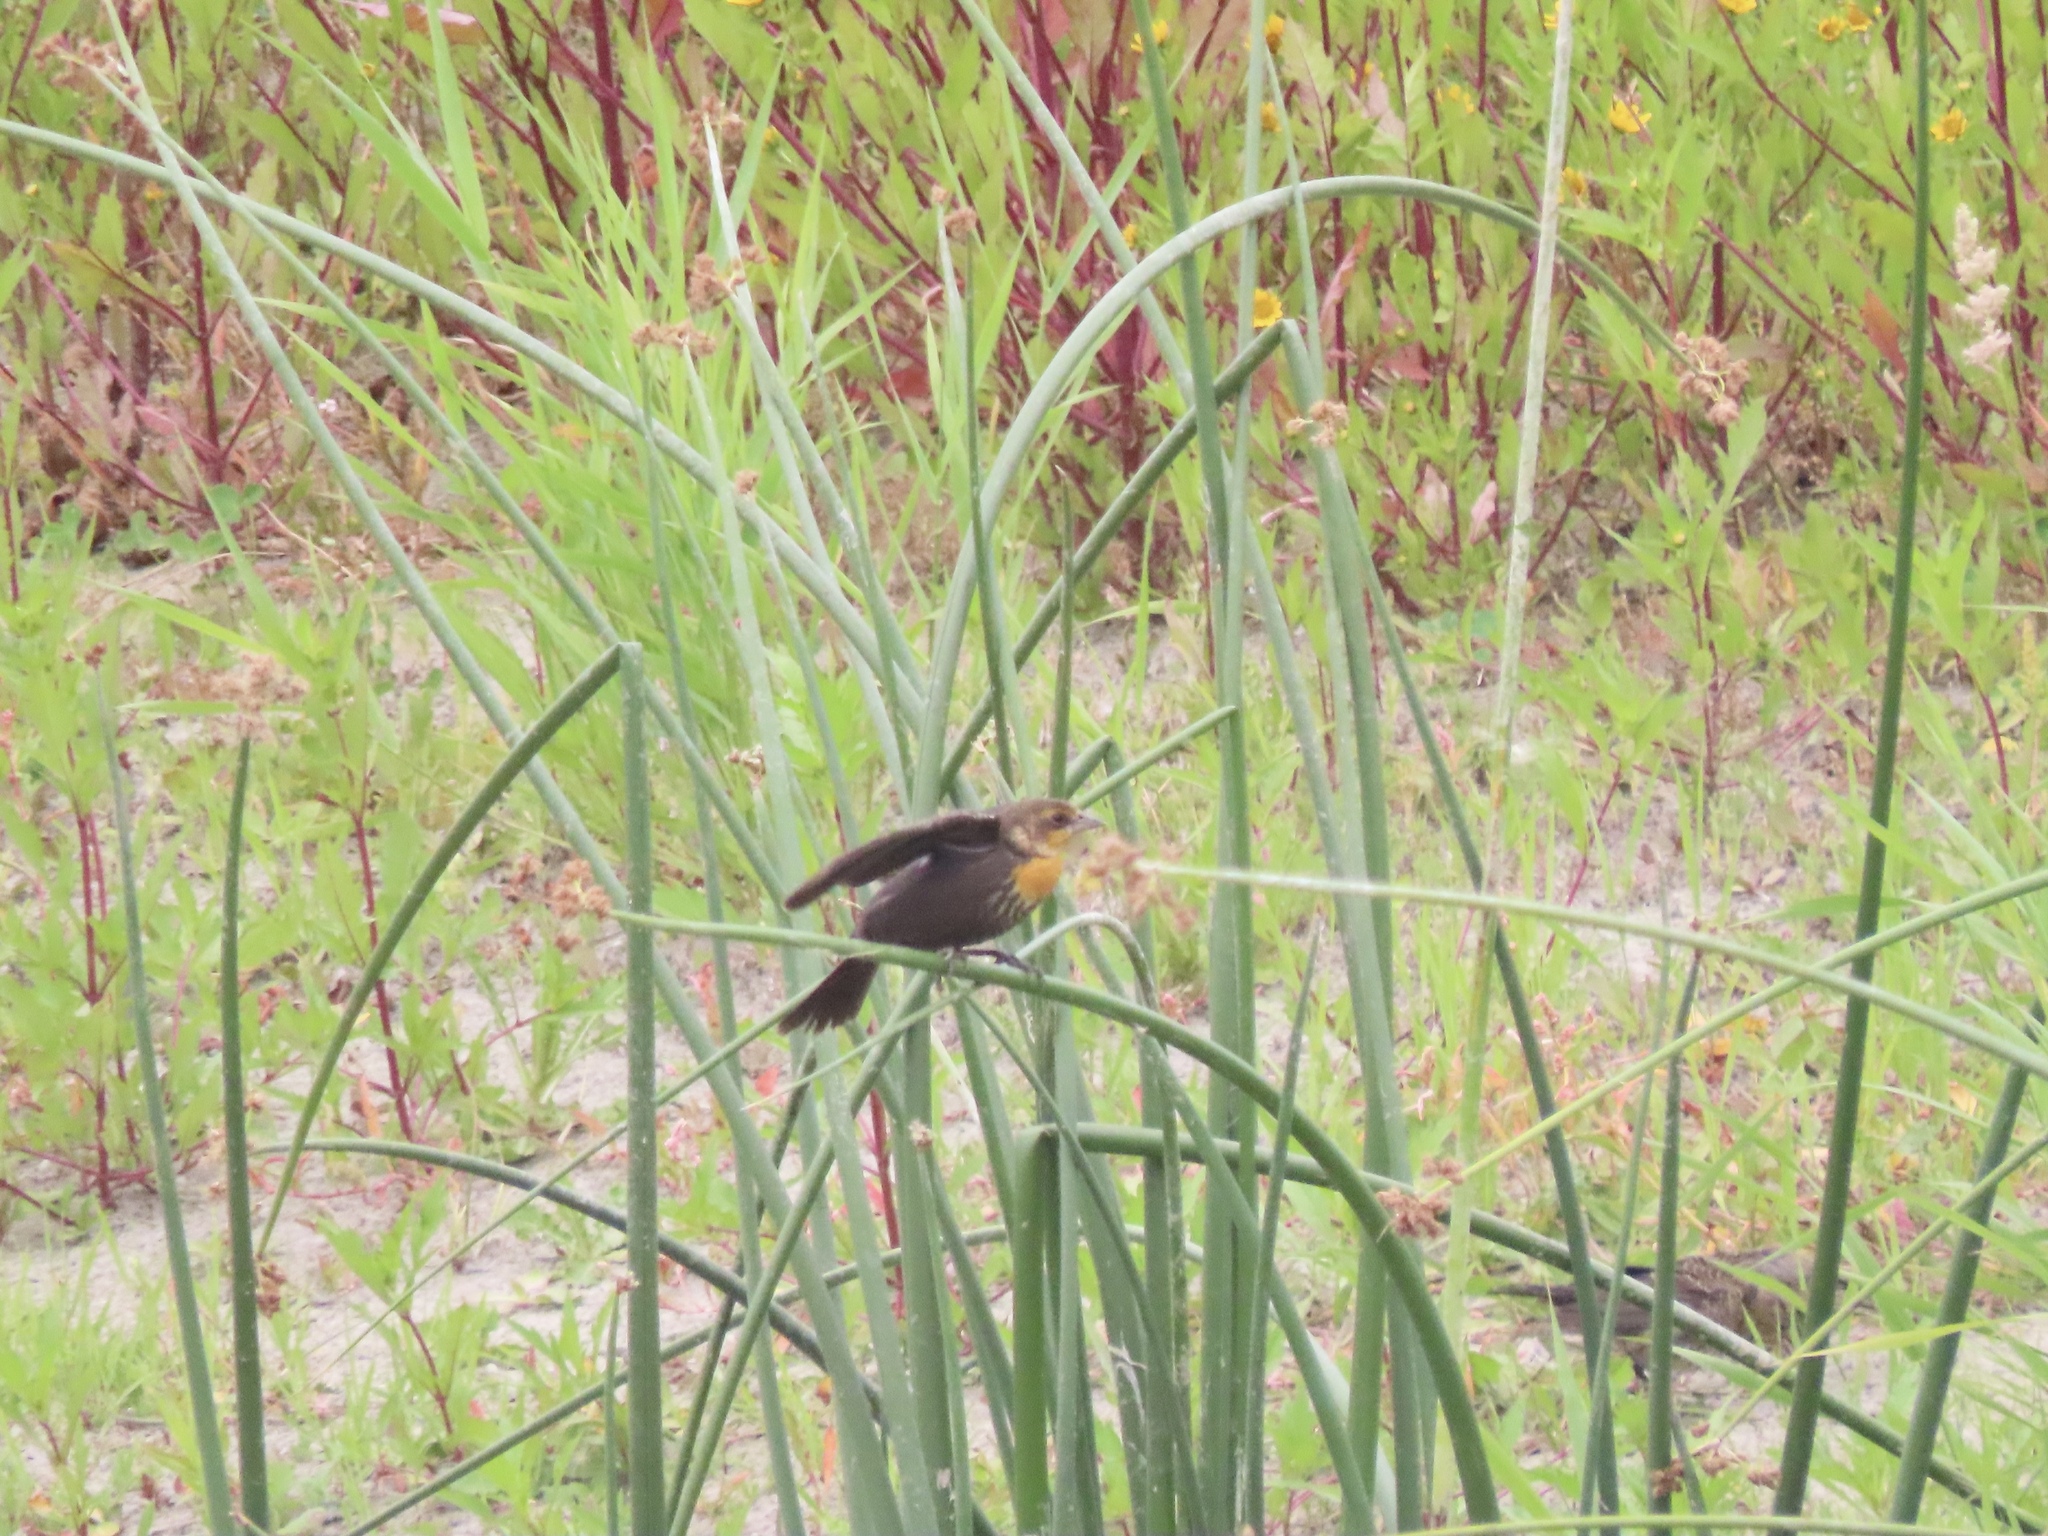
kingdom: Animalia
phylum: Chordata
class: Aves
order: Passeriformes
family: Icteridae
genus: Xanthocephalus
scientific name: Xanthocephalus xanthocephalus
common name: Yellow-headed blackbird
